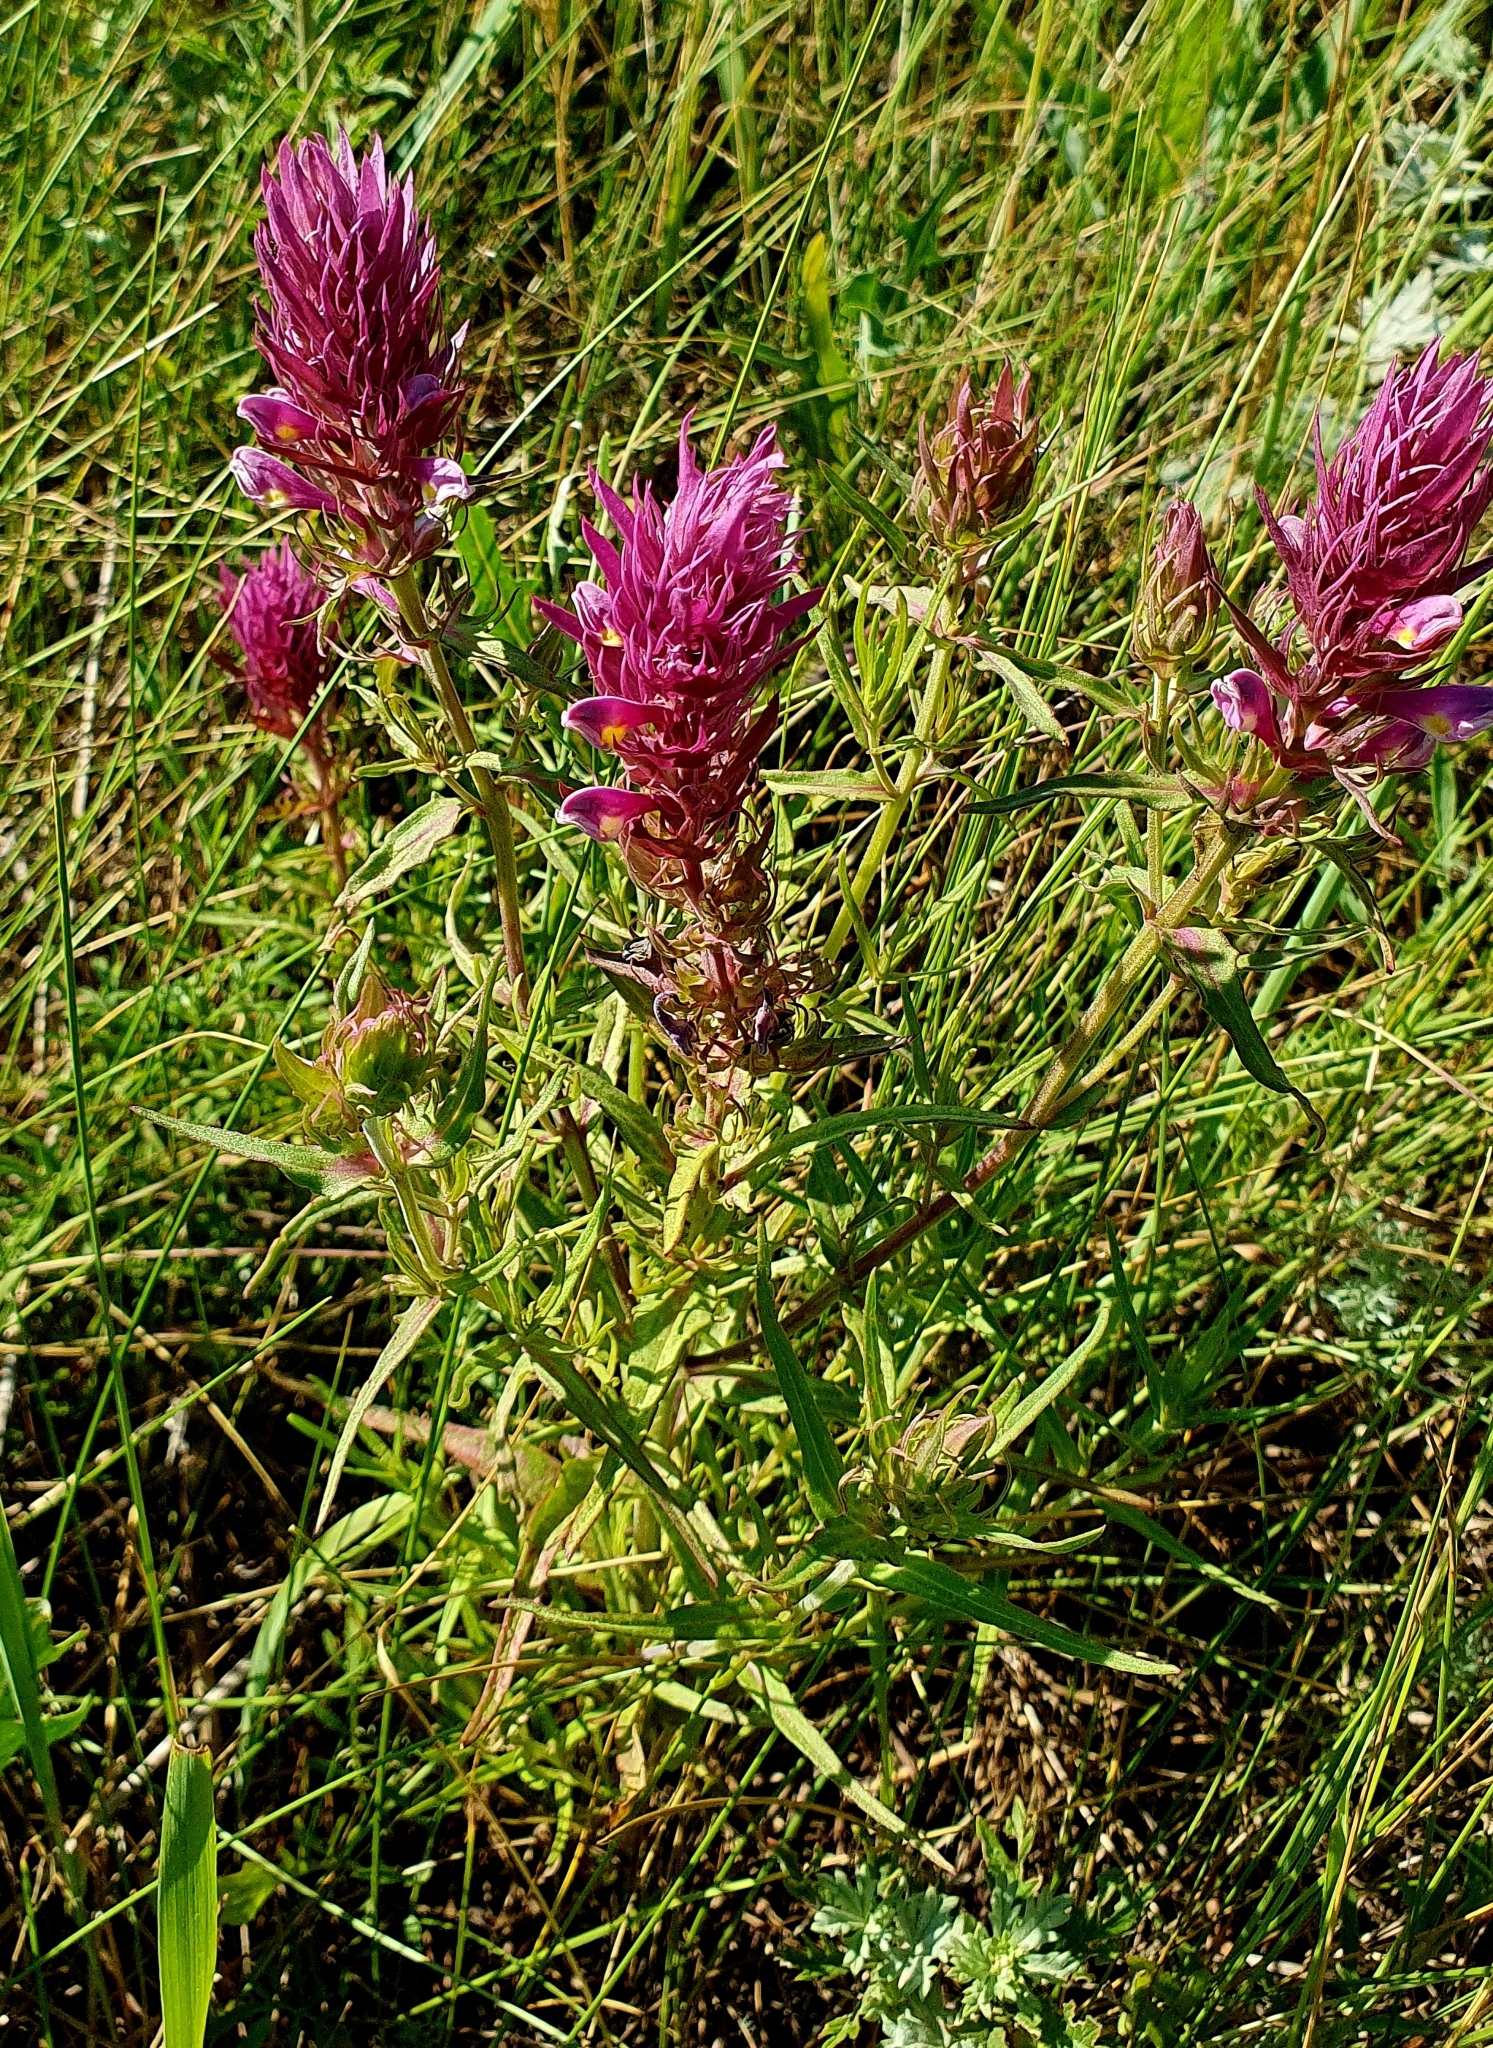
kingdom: Plantae
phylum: Tracheophyta
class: Magnoliopsida
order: Lamiales
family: Orobanchaceae
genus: Melampyrum
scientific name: Melampyrum arvense
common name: Field cow-wheat
